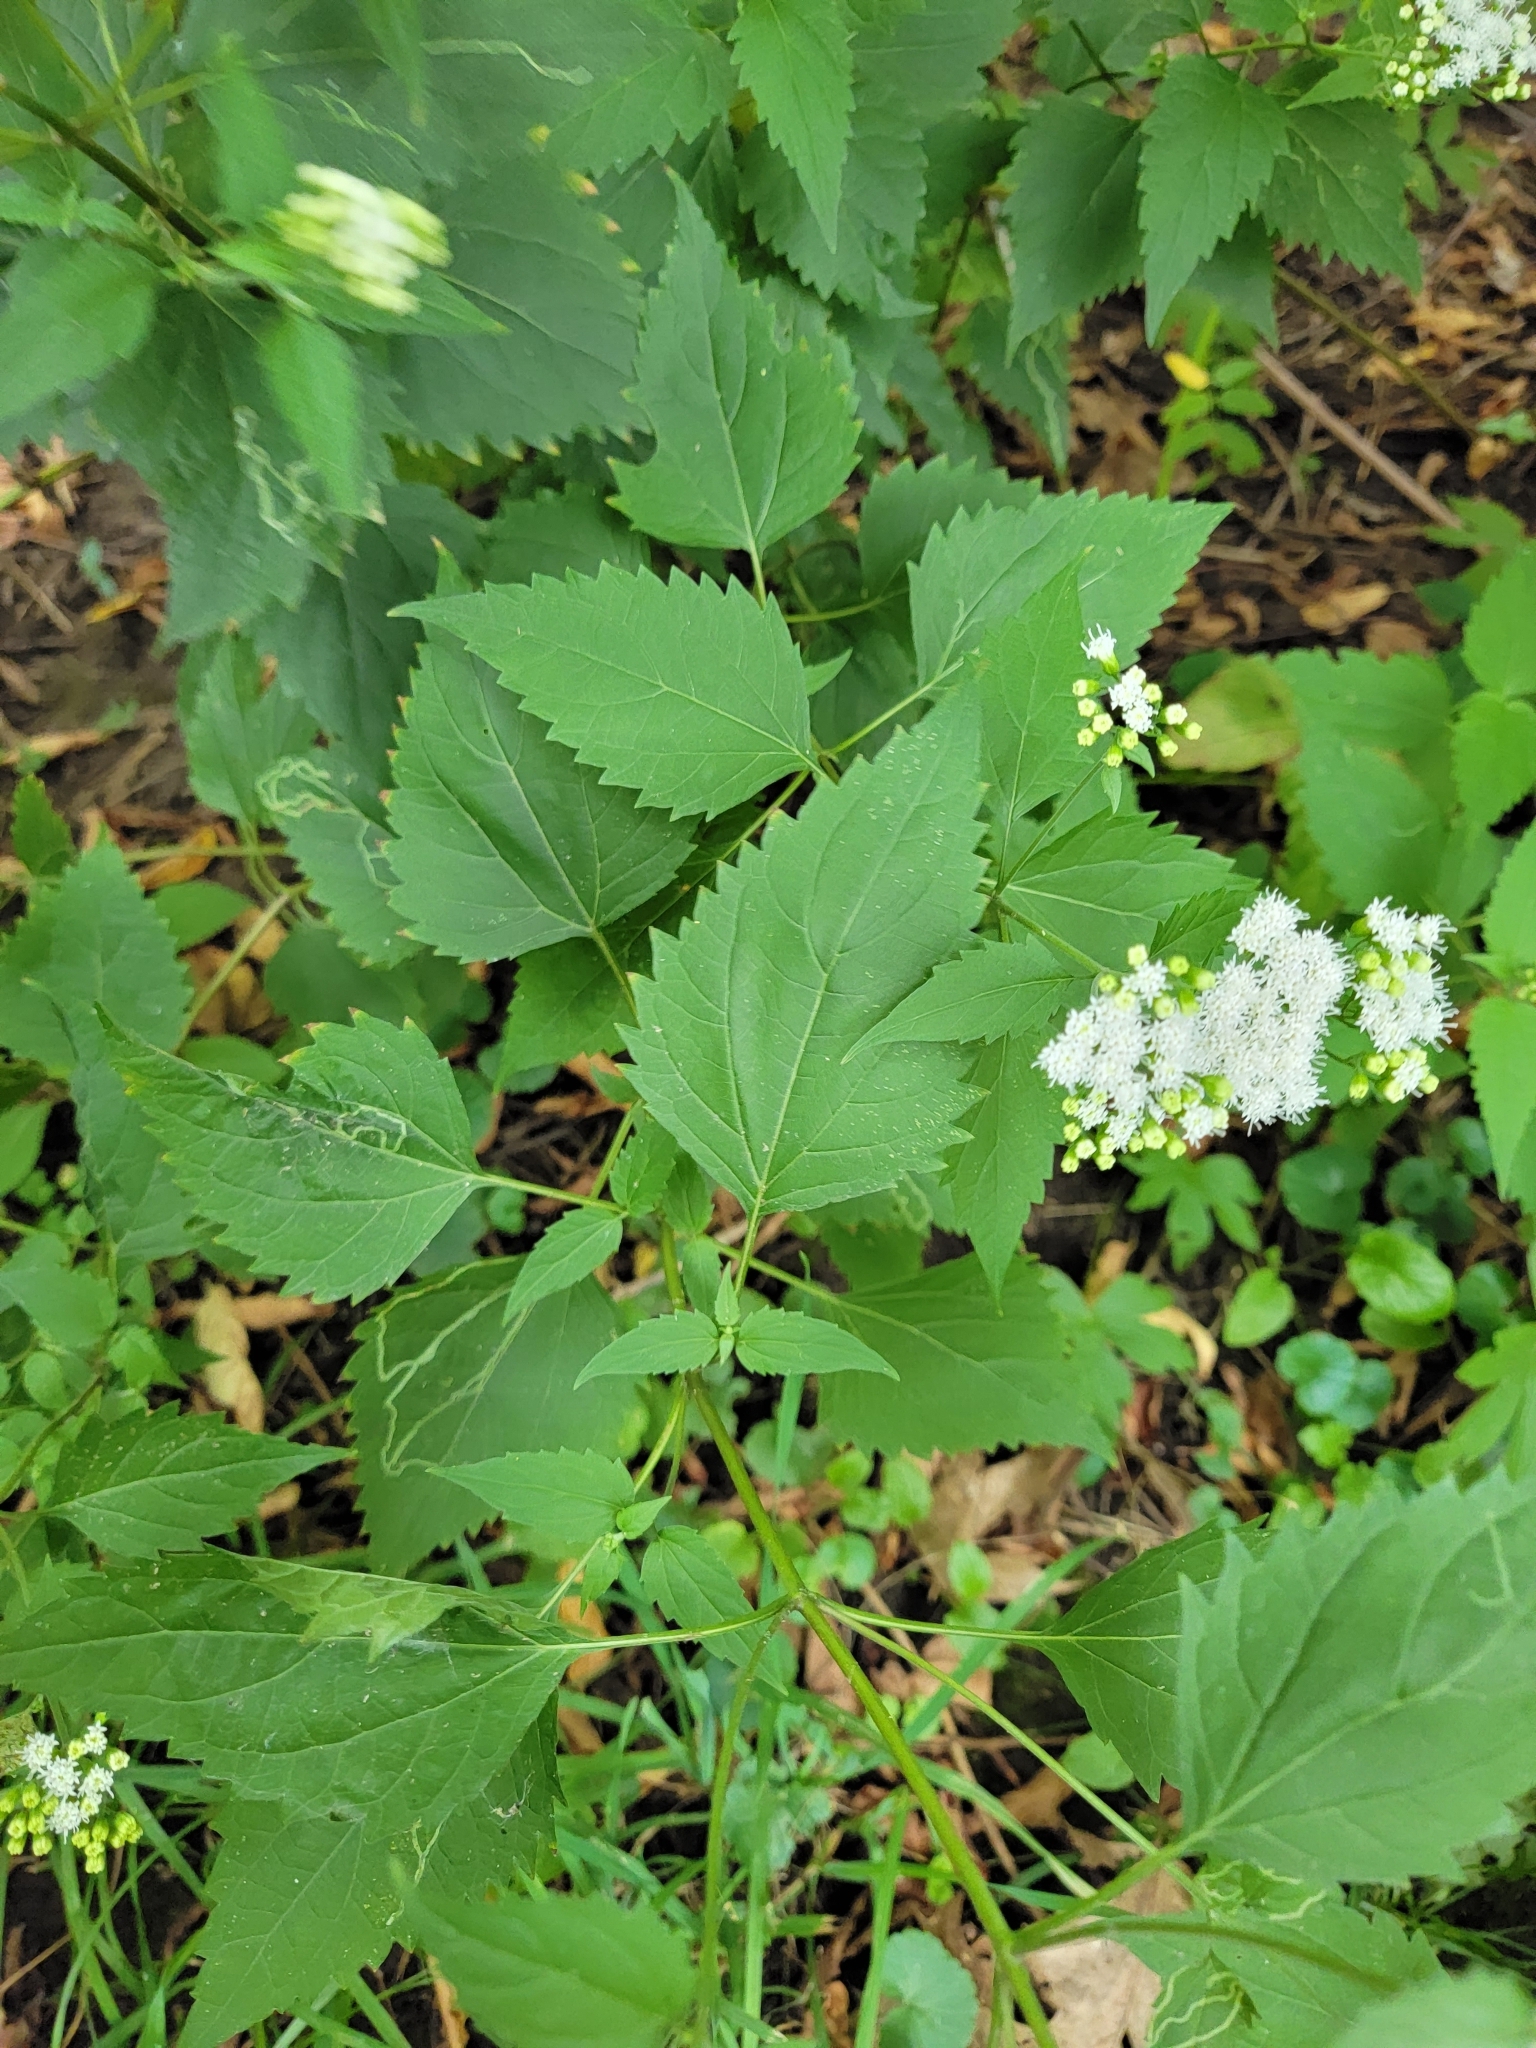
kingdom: Plantae
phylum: Tracheophyta
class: Magnoliopsida
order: Asterales
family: Asteraceae
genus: Ageratina
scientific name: Ageratina altissima
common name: White snakeroot
